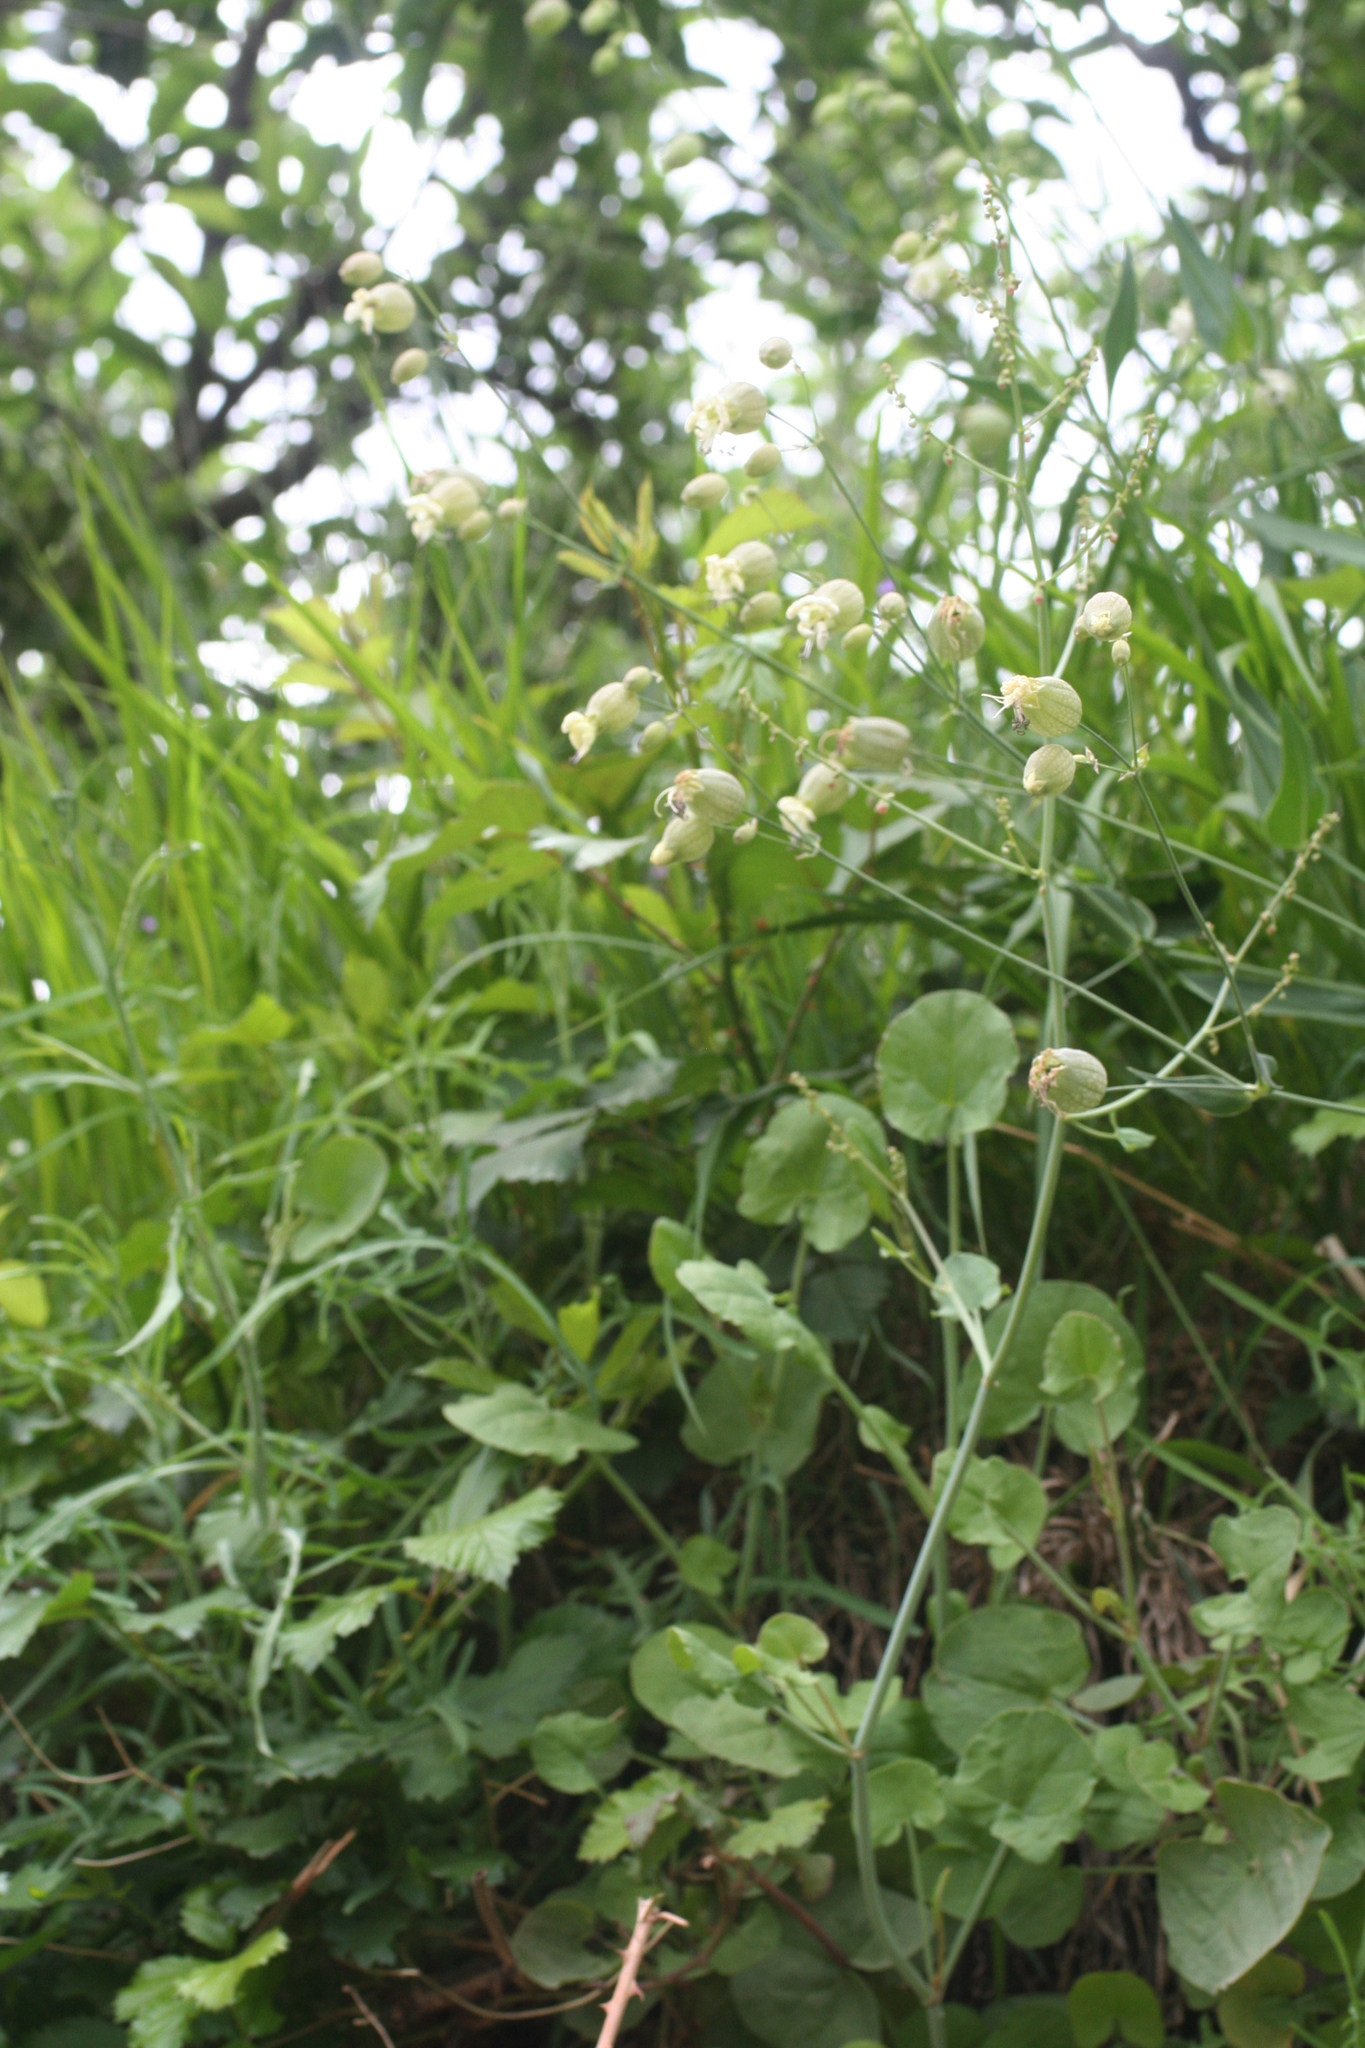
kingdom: Plantae
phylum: Tracheophyta
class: Magnoliopsida
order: Caryophyllales
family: Caryophyllaceae
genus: Silene
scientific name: Silene vulgaris
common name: Bladder campion
